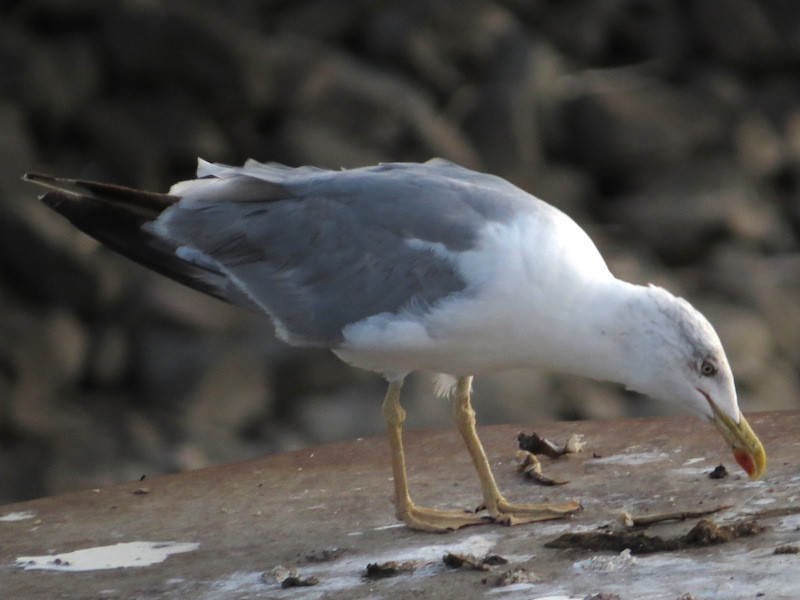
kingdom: Animalia
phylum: Chordata
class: Aves
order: Charadriiformes
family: Laridae
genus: Larus
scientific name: Larus michahellis
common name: Yellow-legged gull
